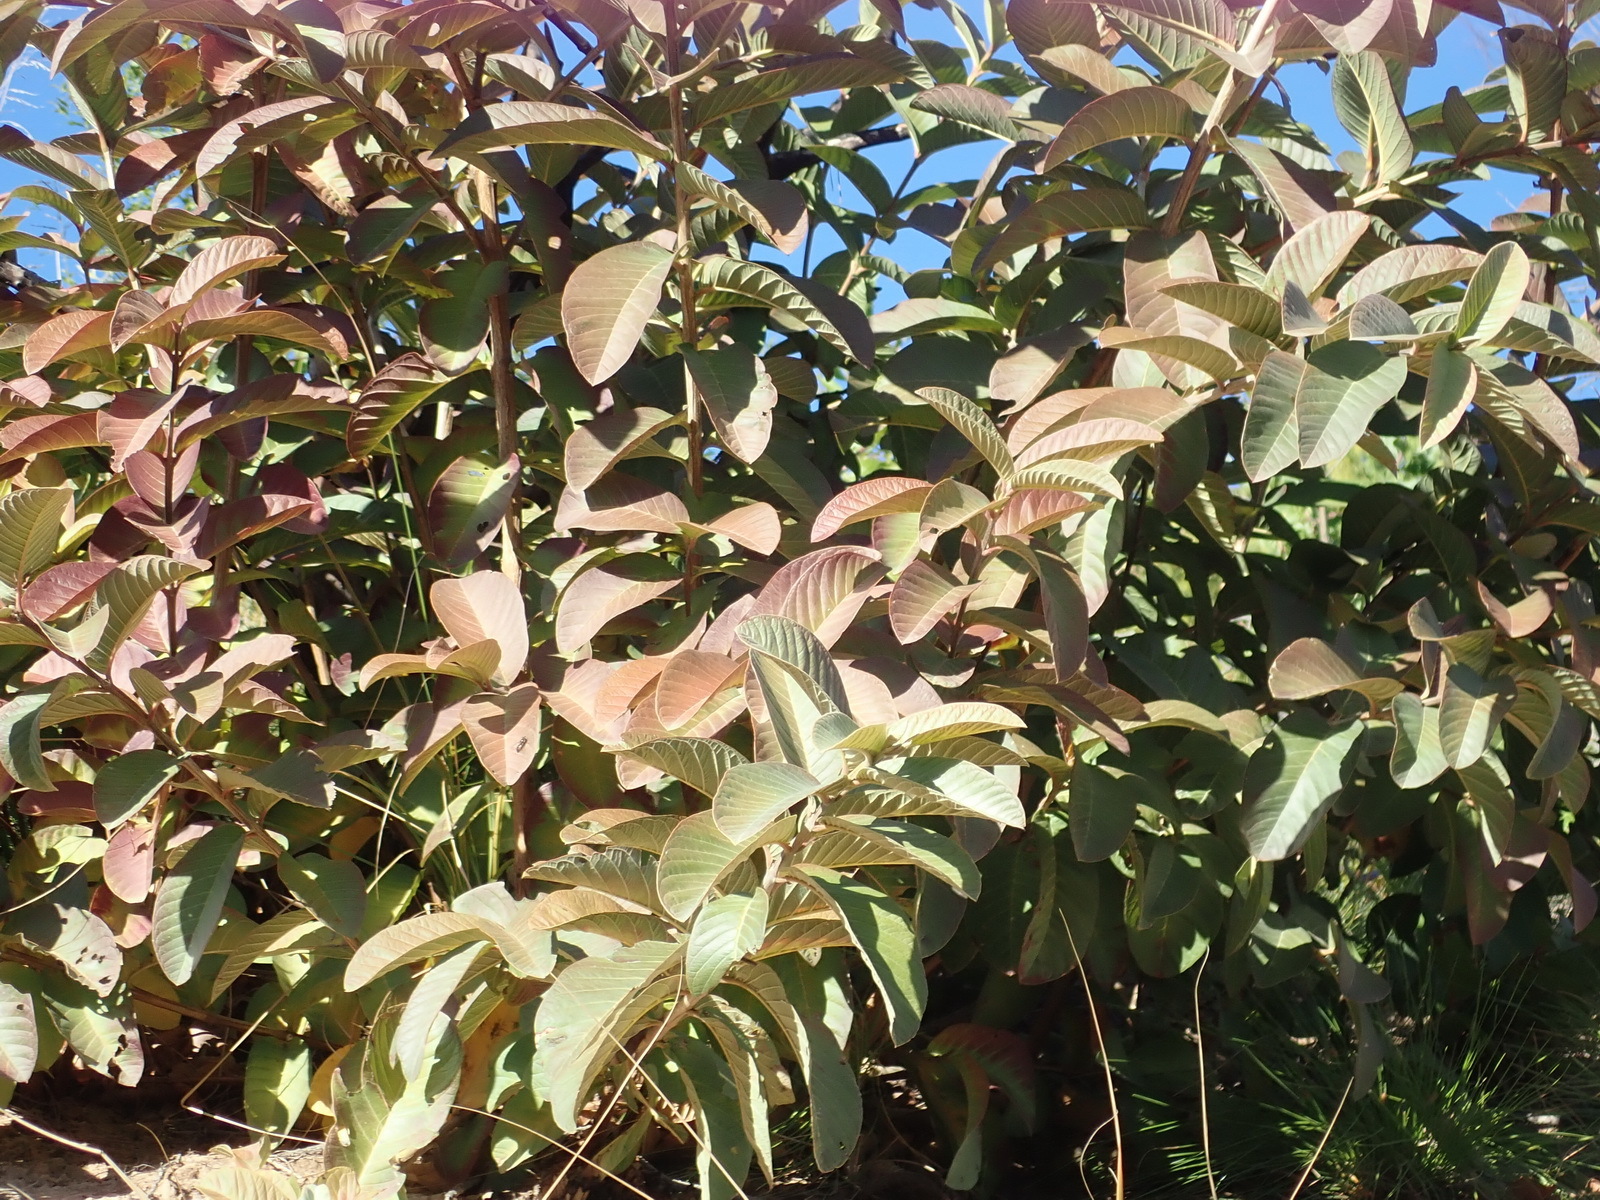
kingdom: Plantae
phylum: Tracheophyta
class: Magnoliopsida
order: Myrtales
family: Myrtaceae
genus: Psidium
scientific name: Psidium guajava
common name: Guava
